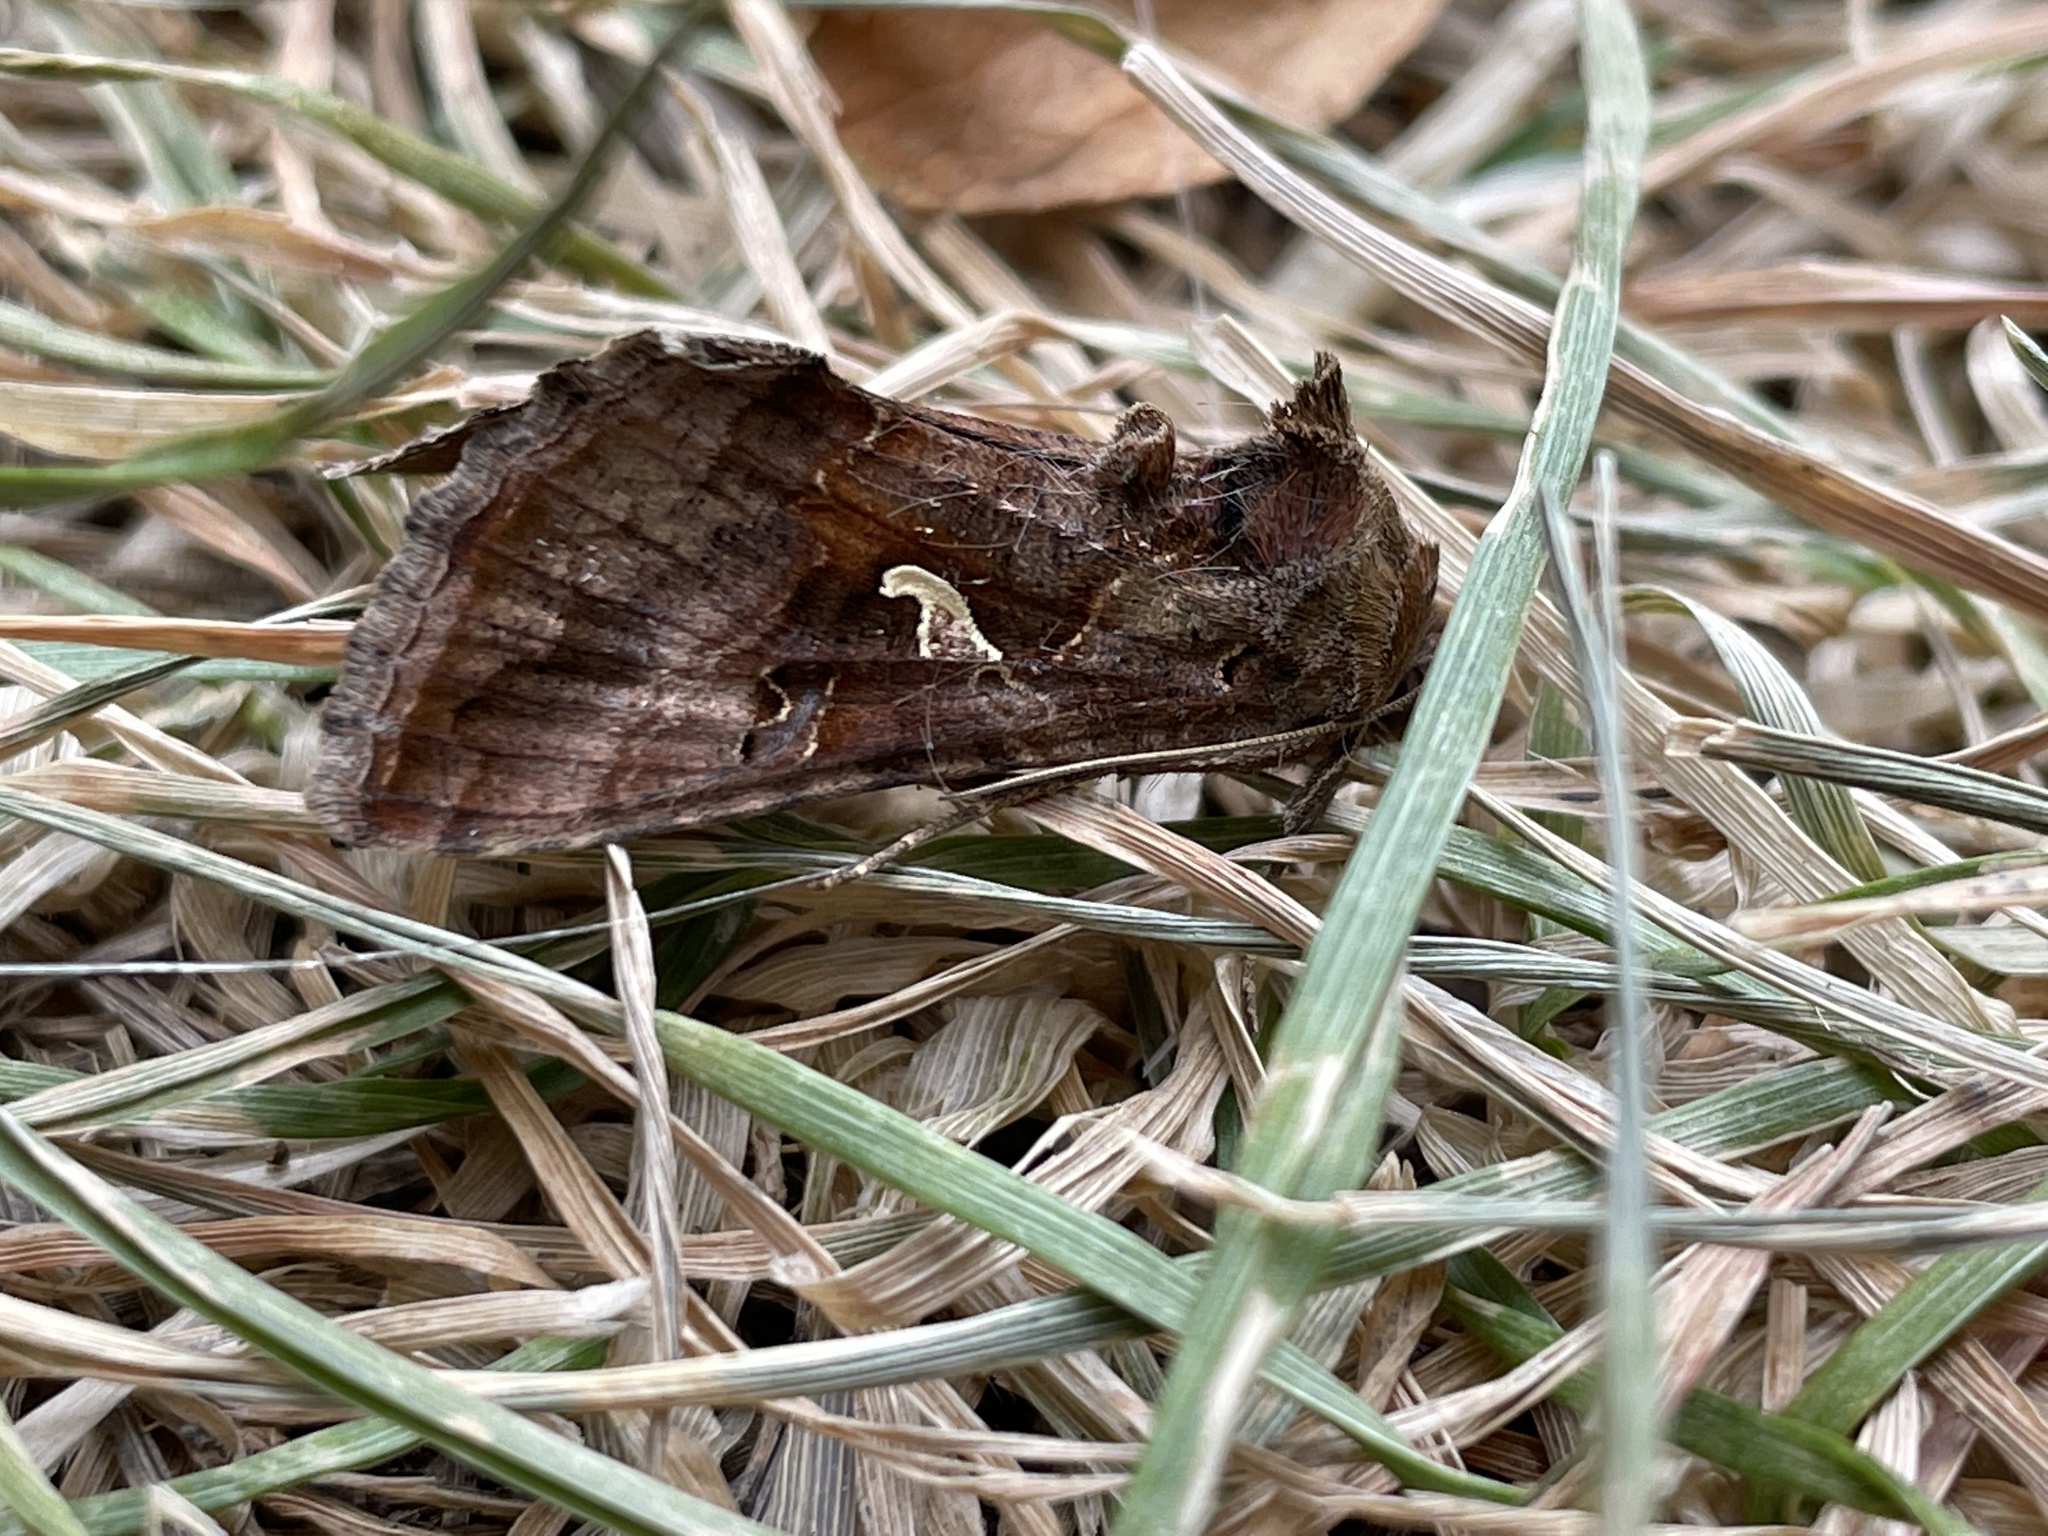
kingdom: Animalia
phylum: Arthropoda
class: Insecta
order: Lepidoptera
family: Noctuidae
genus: Autographa
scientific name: Autographa gamma
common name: Silver y
